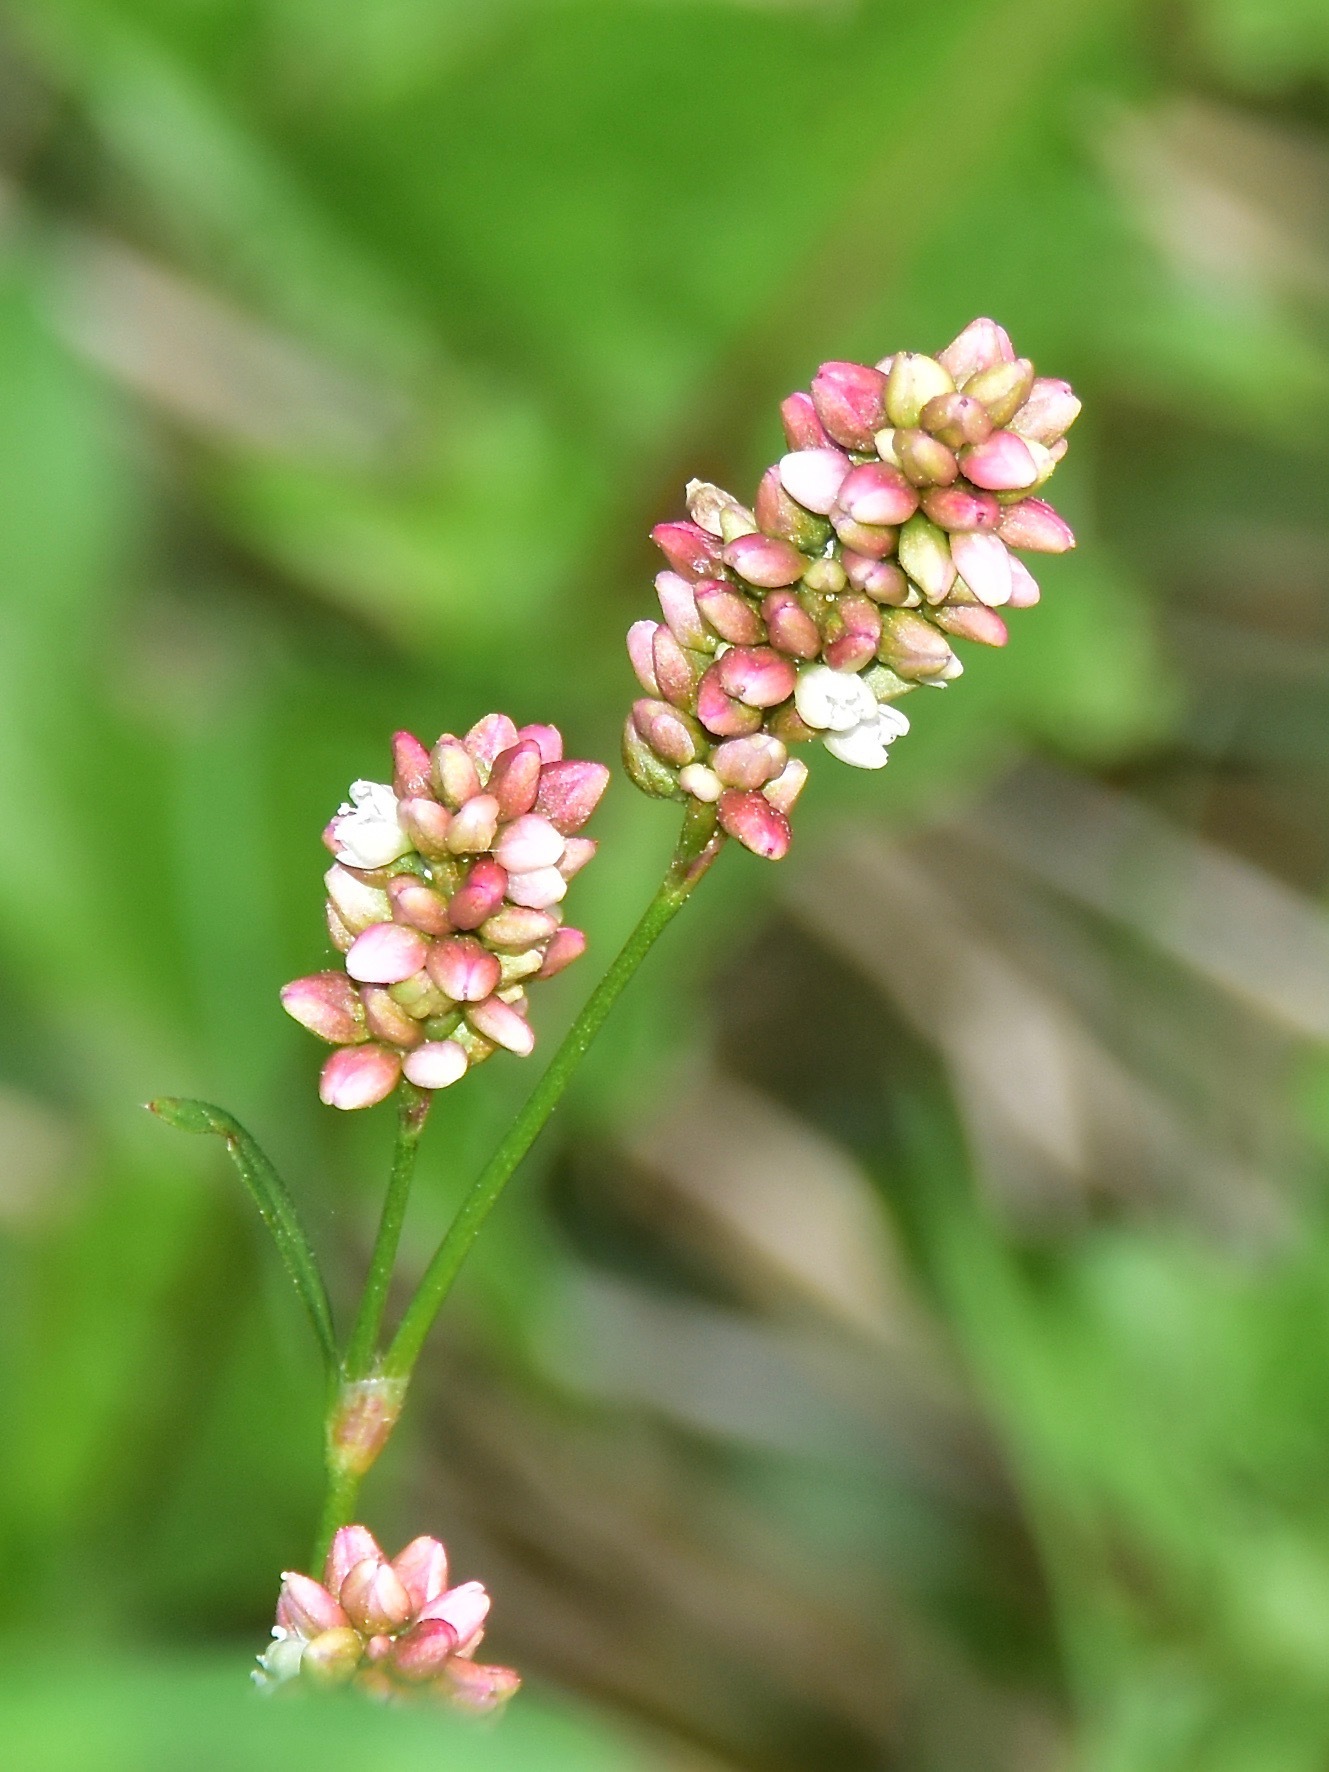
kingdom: Plantae
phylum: Tracheophyta
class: Magnoliopsida
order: Caryophyllales
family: Polygonaceae
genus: Persicaria
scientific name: Persicaria maculosa
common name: Redshank
